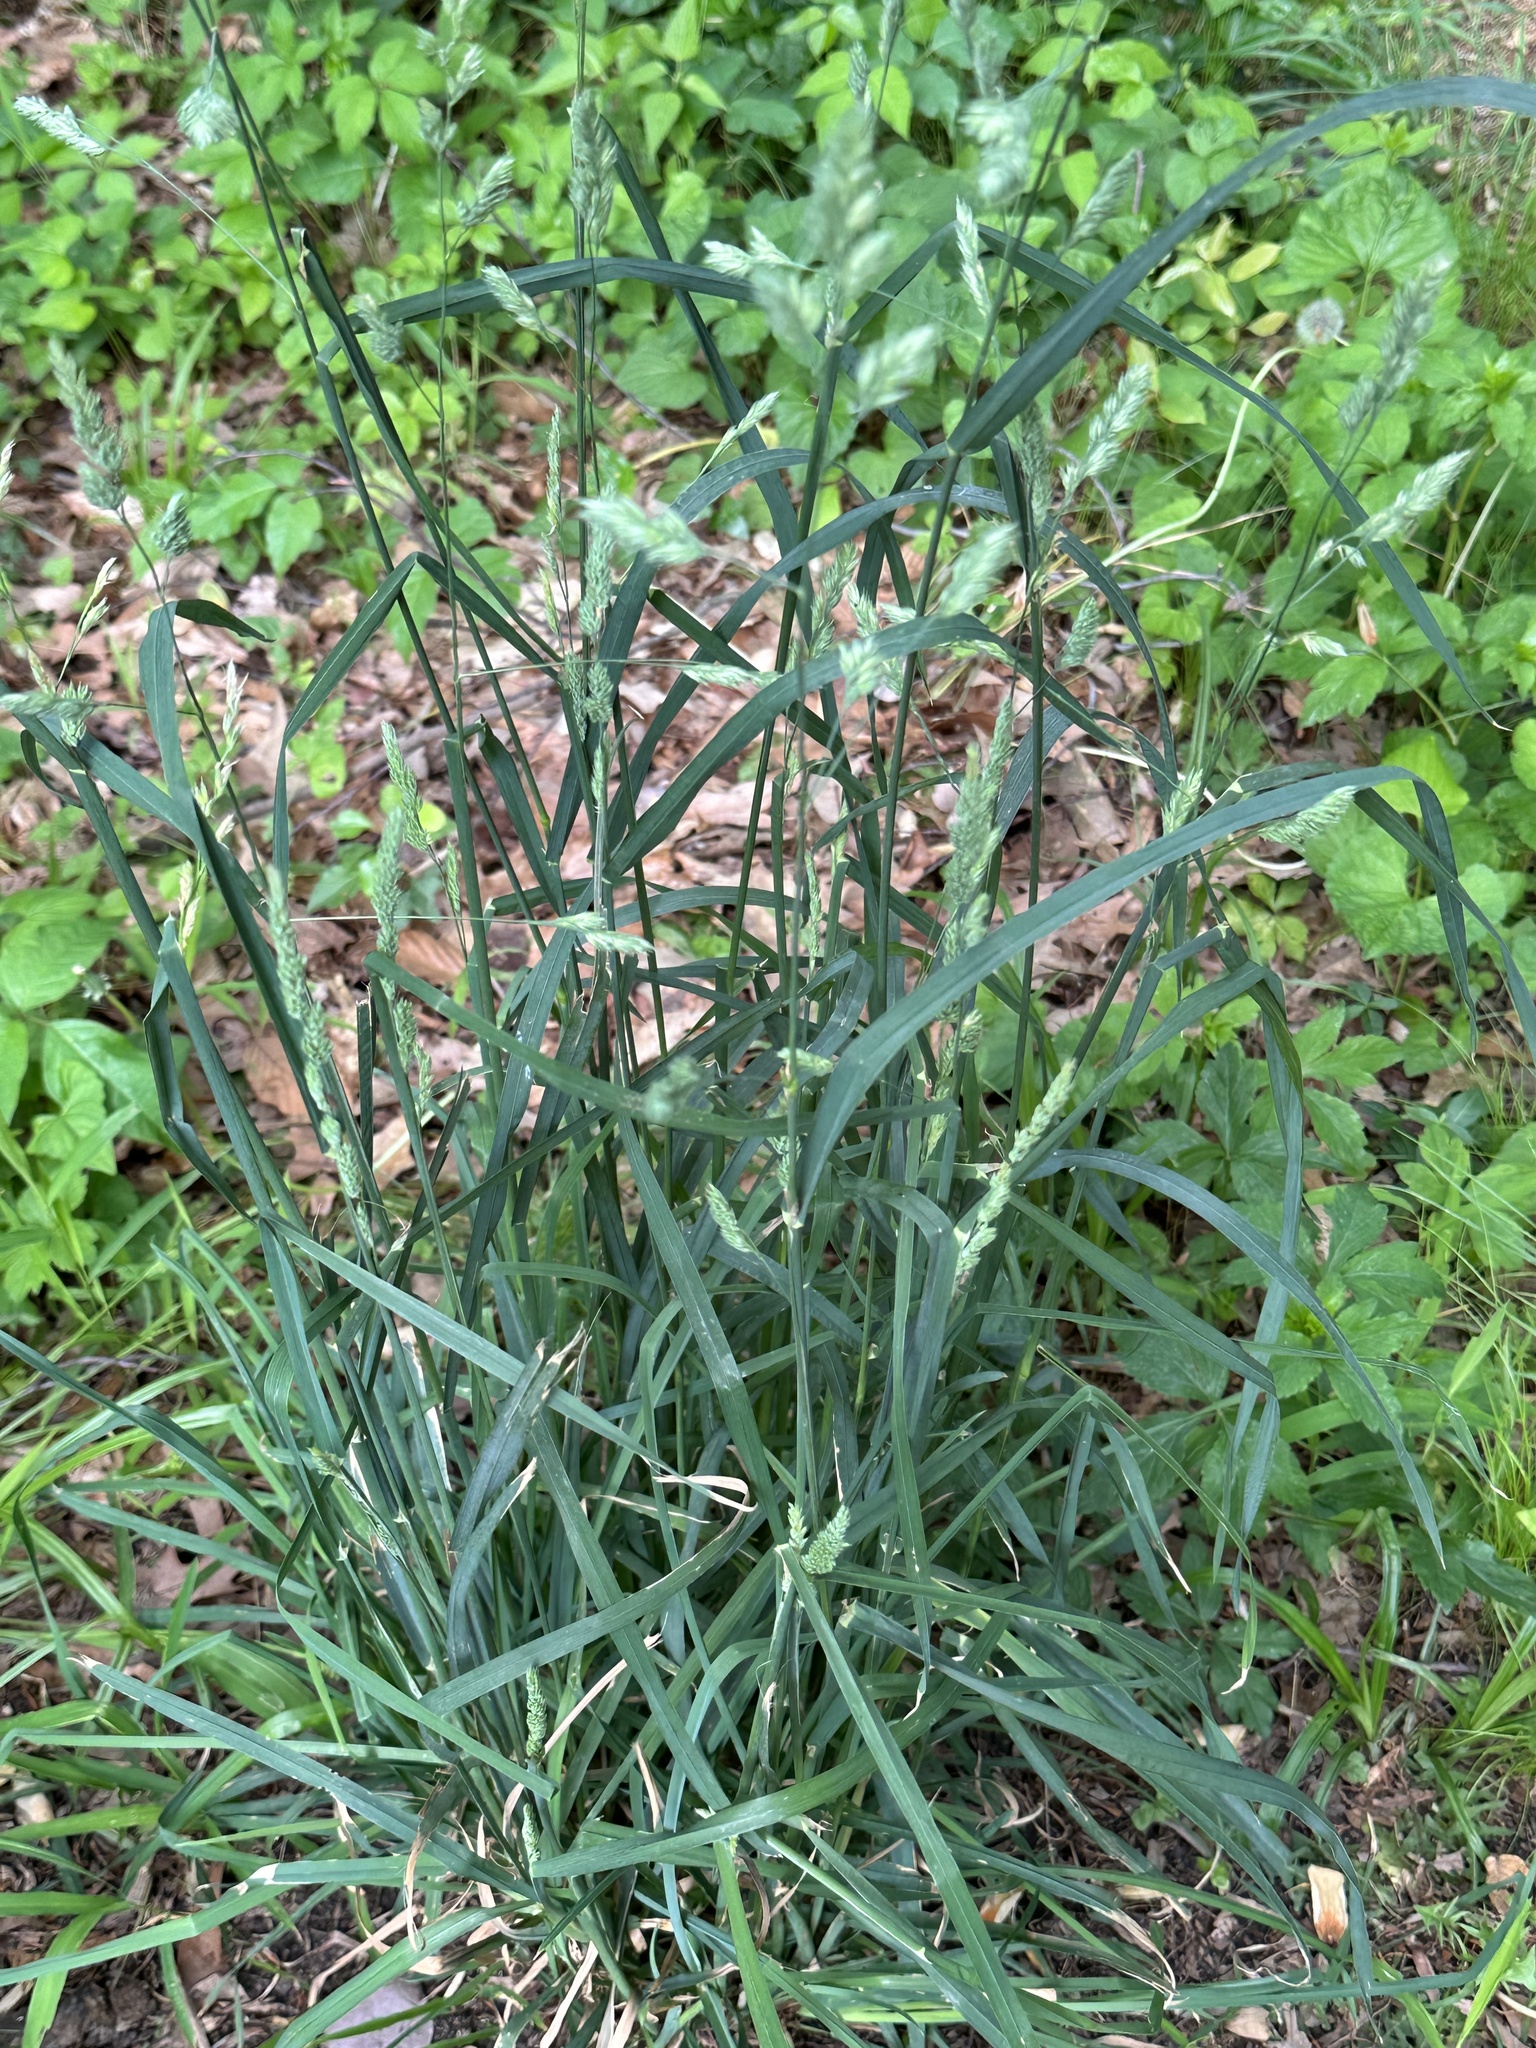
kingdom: Plantae
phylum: Tracheophyta
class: Liliopsida
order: Poales
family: Poaceae
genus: Dactylis
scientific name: Dactylis glomerata
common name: Orchardgrass
